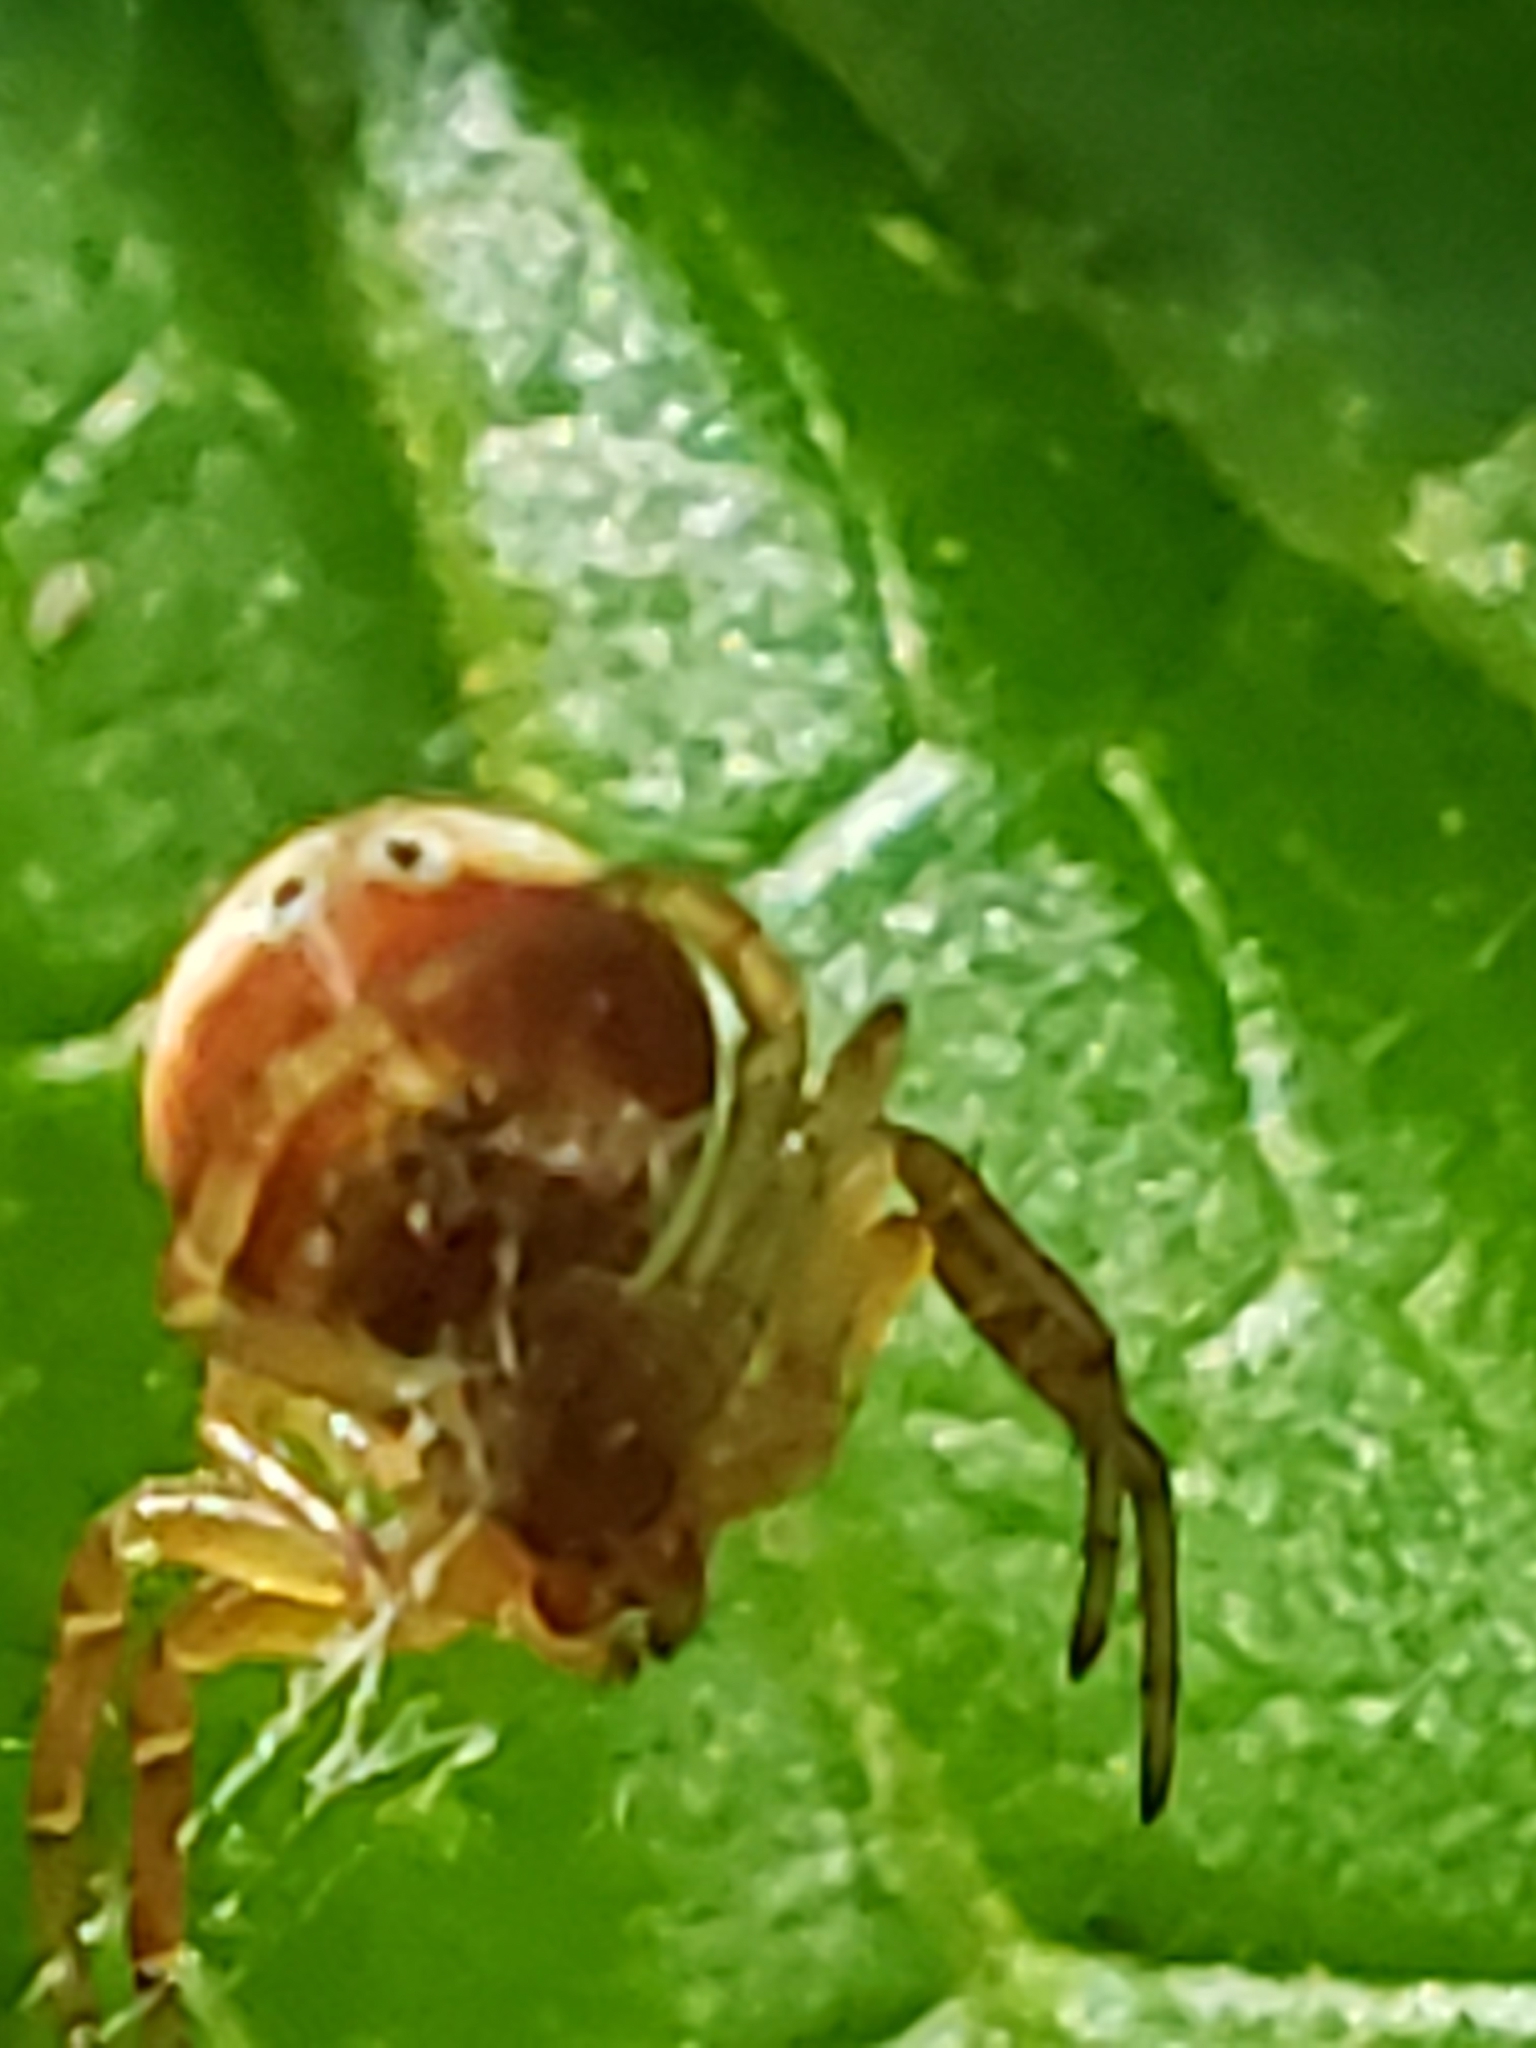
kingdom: Animalia
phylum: Arthropoda
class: Arachnida
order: Araneae
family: Araneidae
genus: Araniella
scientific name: Araniella displicata
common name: Sixspotted orb weaver
